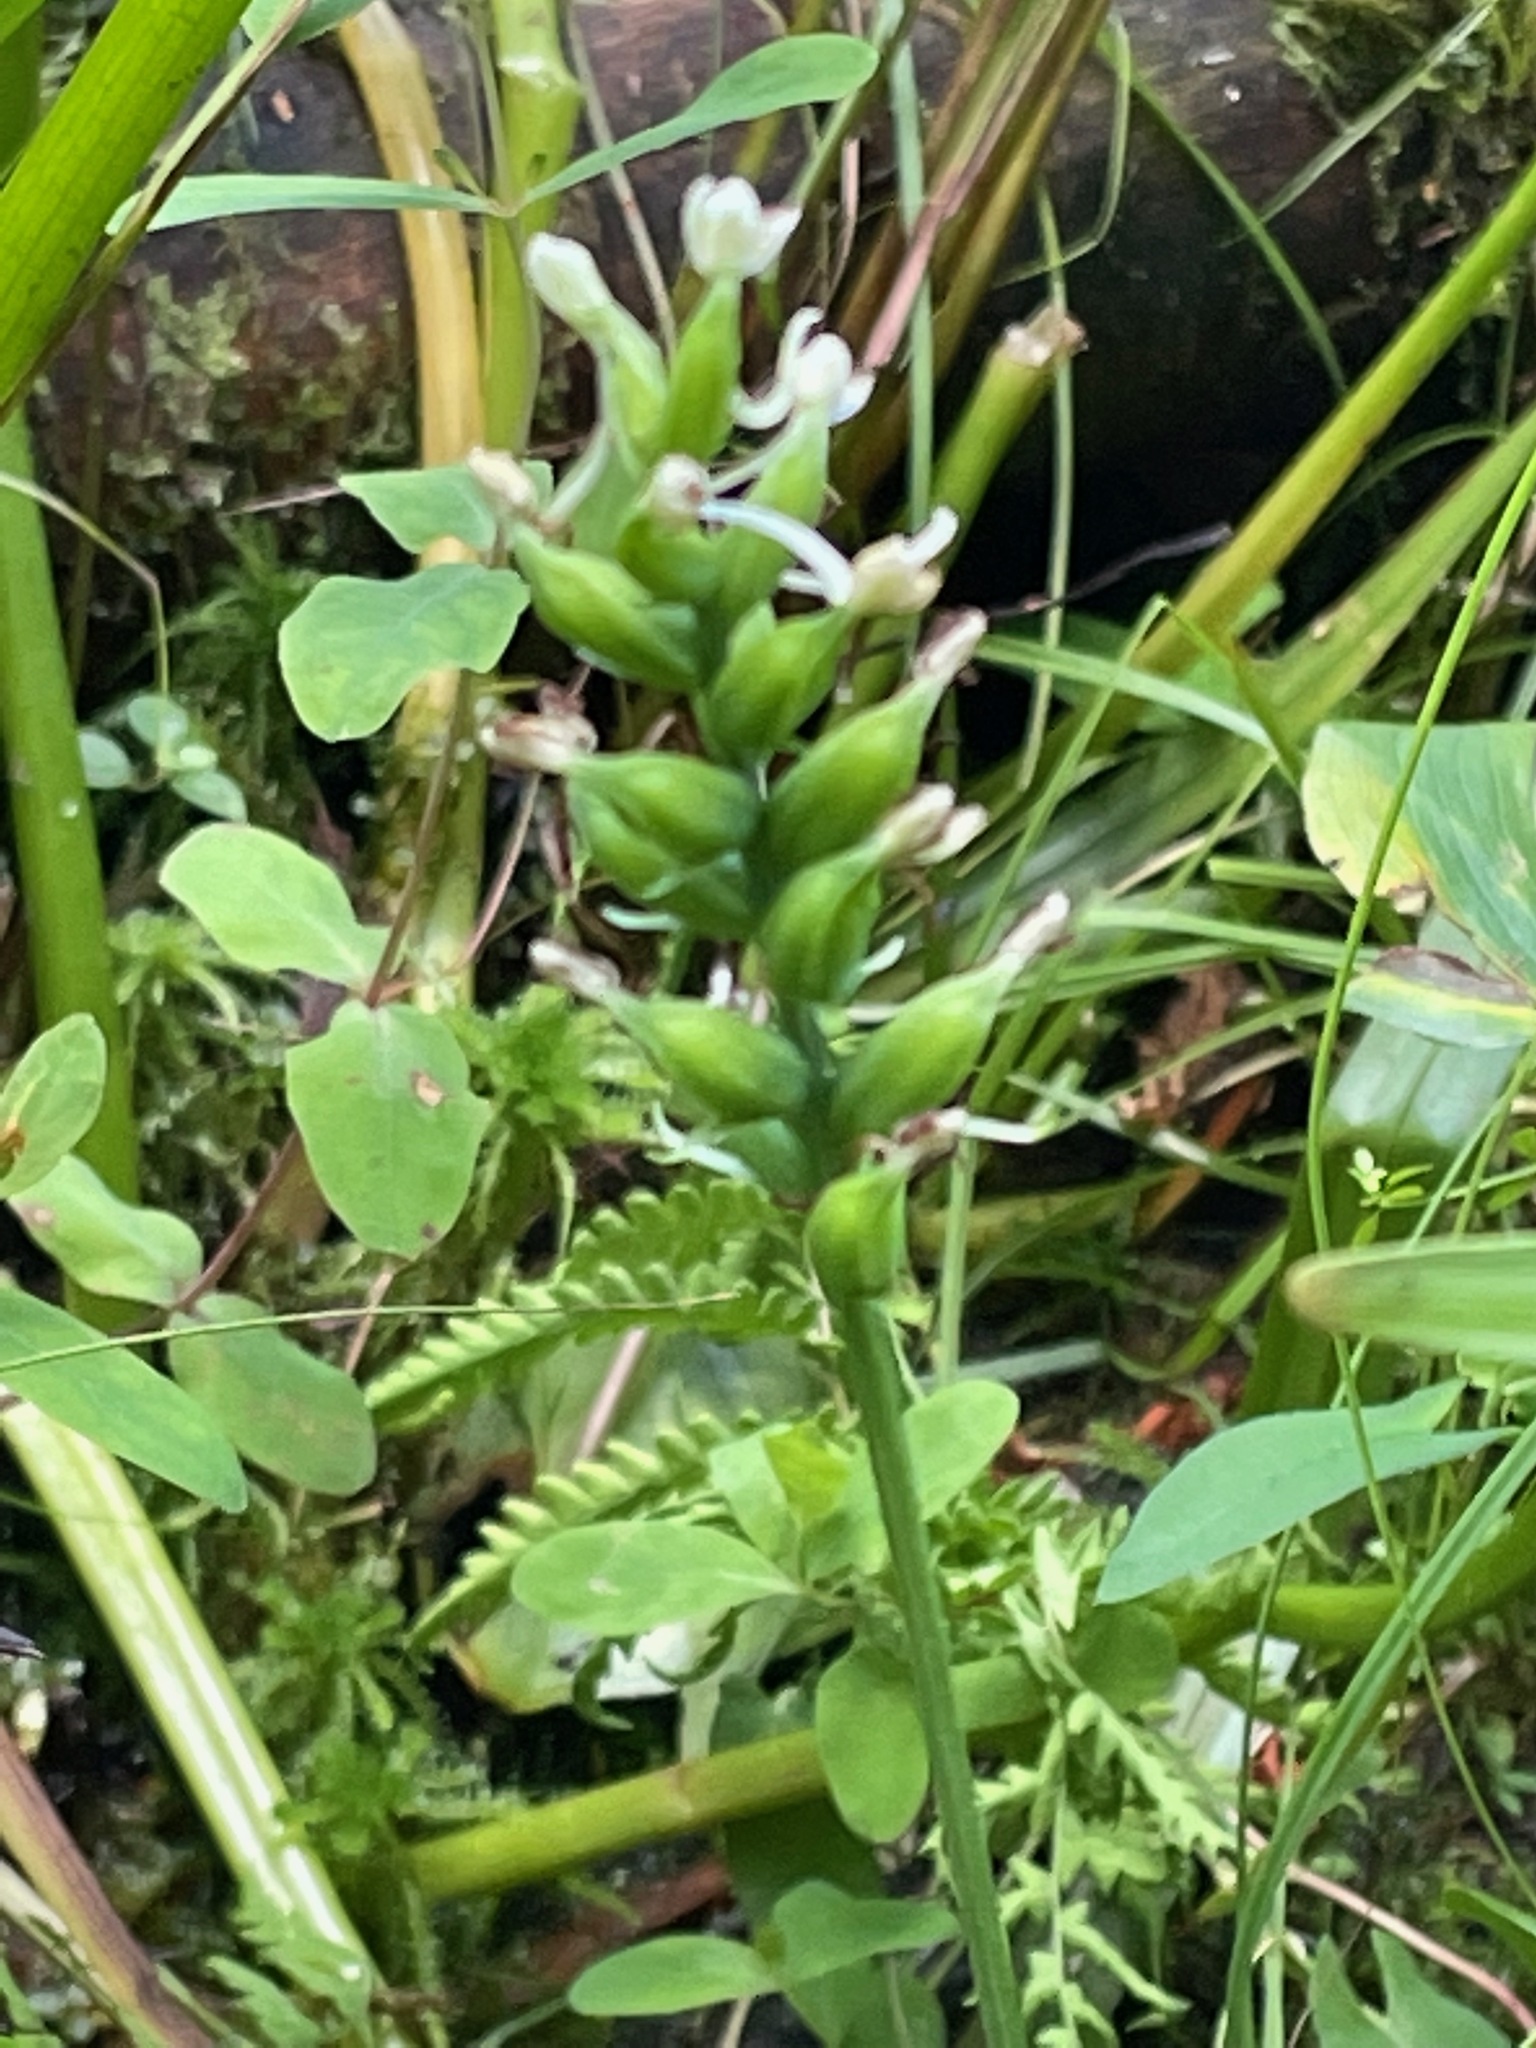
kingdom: Plantae
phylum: Tracheophyta
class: Liliopsida
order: Asparagales
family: Orchidaceae
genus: Platanthera
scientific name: Platanthera clavellata
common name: Club-spur orchid
